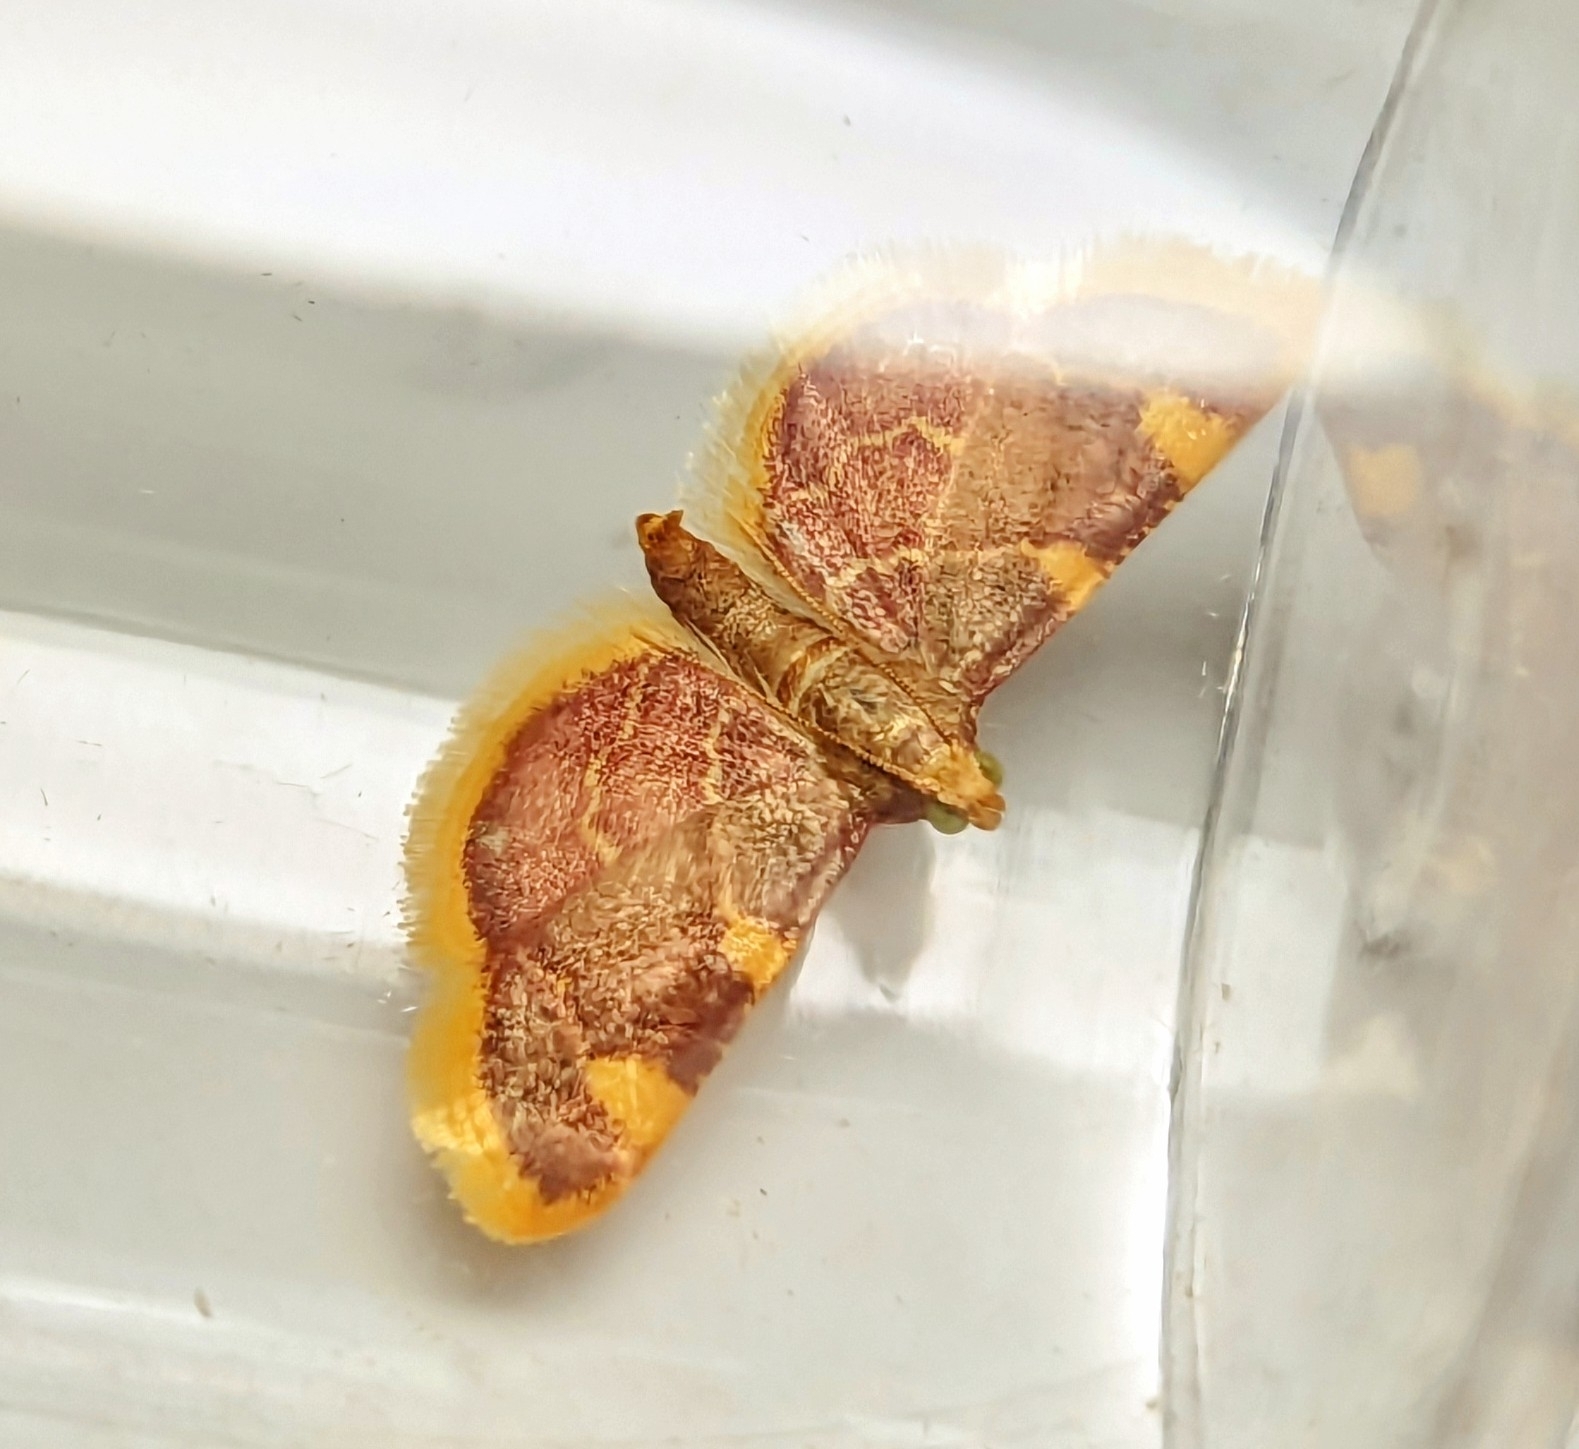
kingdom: Animalia
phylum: Arthropoda
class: Insecta
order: Lepidoptera
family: Pyralidae
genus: Hypsopygia
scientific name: Hypsopygia costalis
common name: Gold triangle
